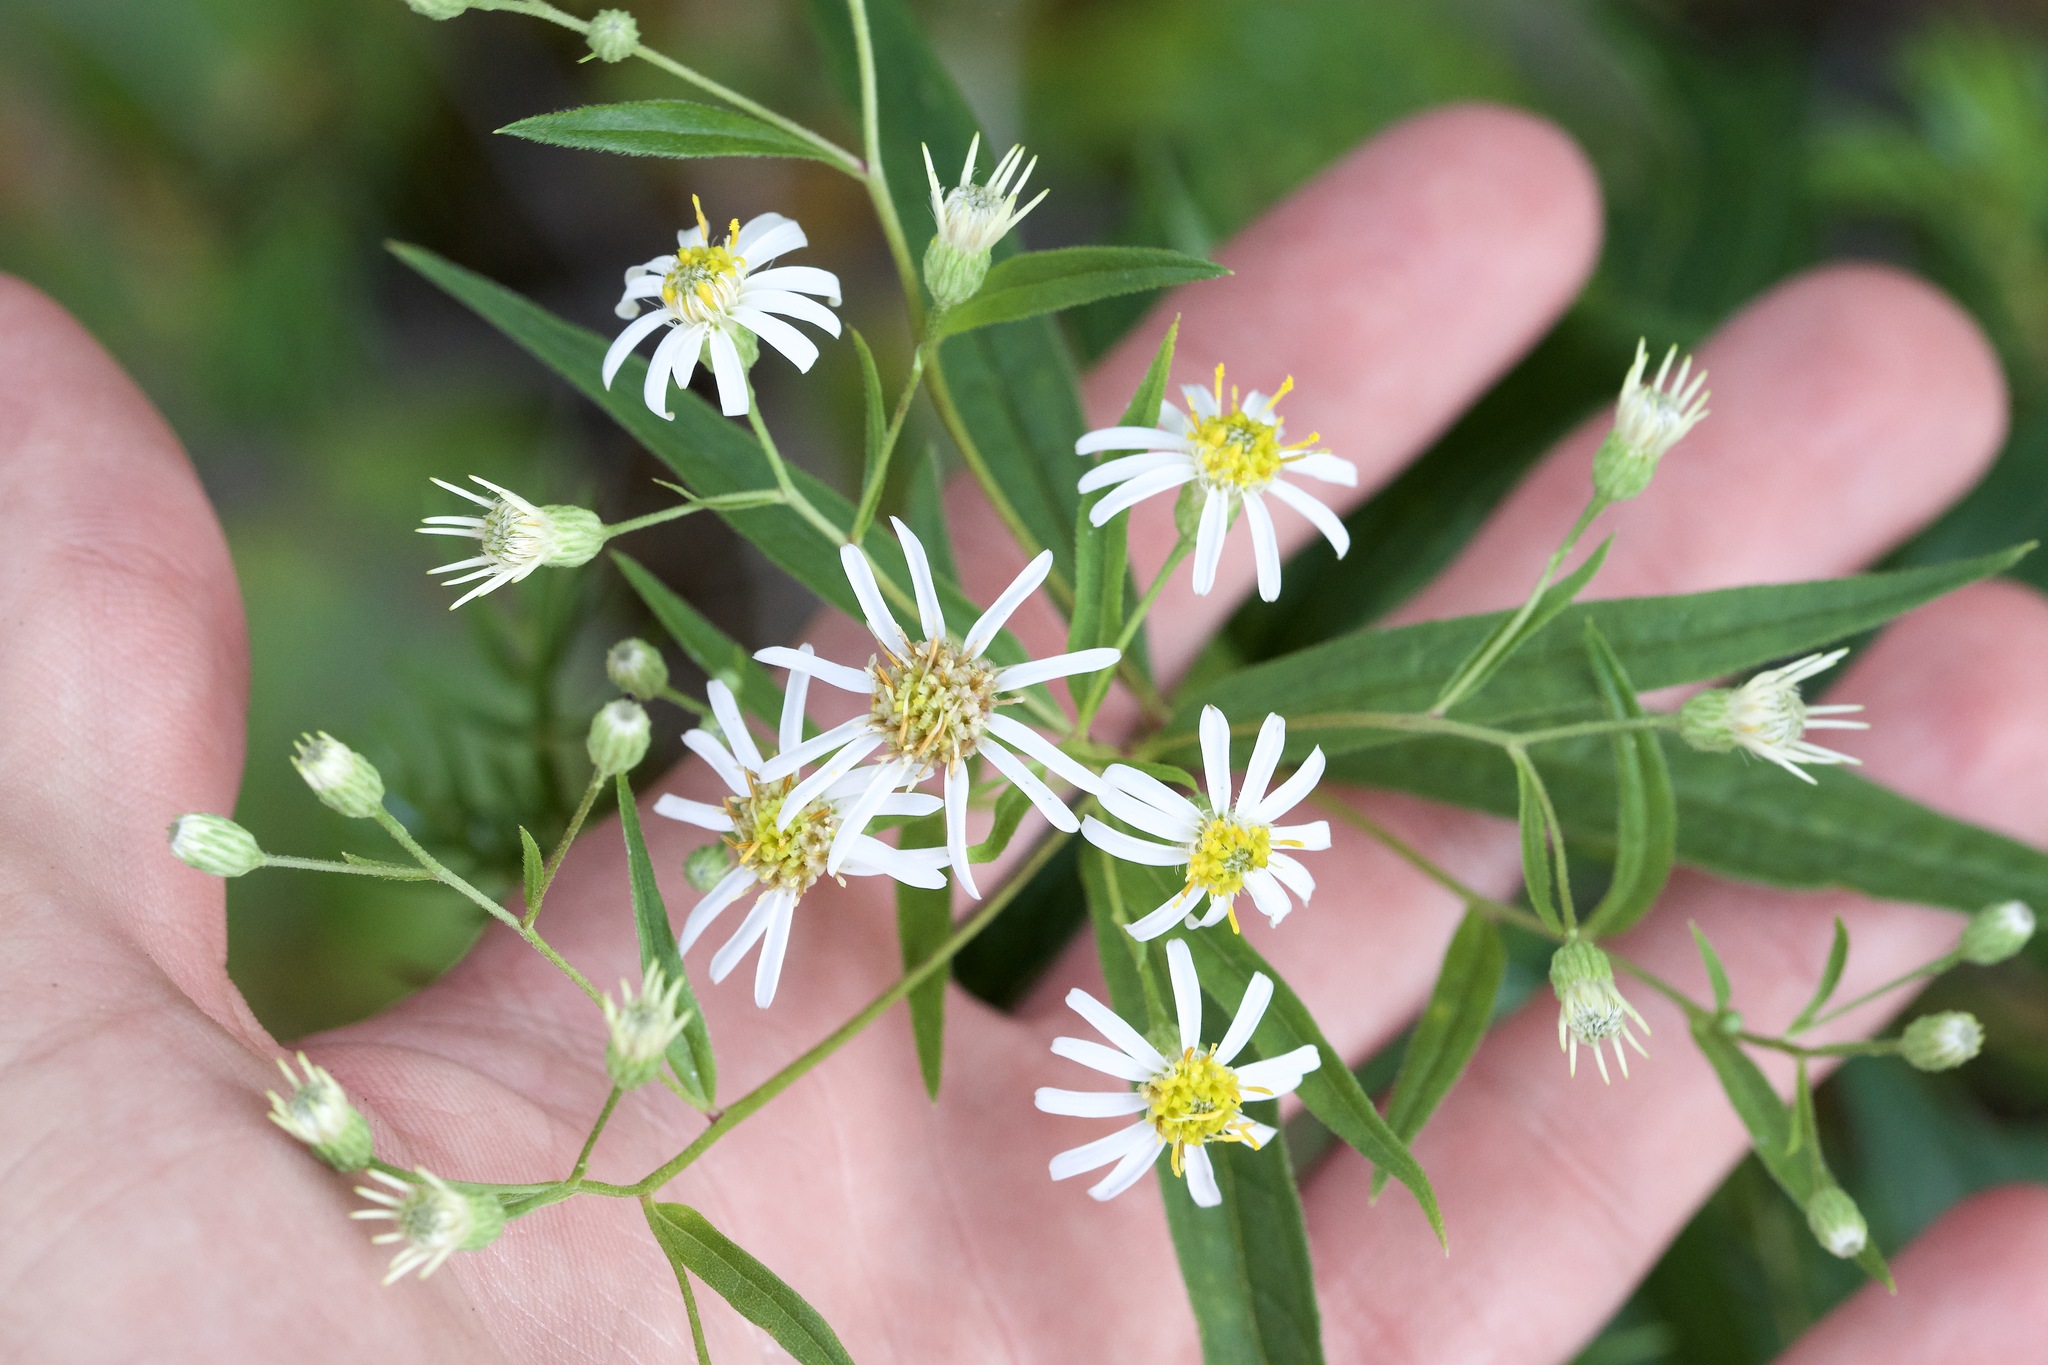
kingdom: Plantae
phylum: Tracheophyta
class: Magnoliopsida
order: Asterales
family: Asteraceae
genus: Doellingeria
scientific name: Doellingeria umbellata
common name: Flat-top white aster
